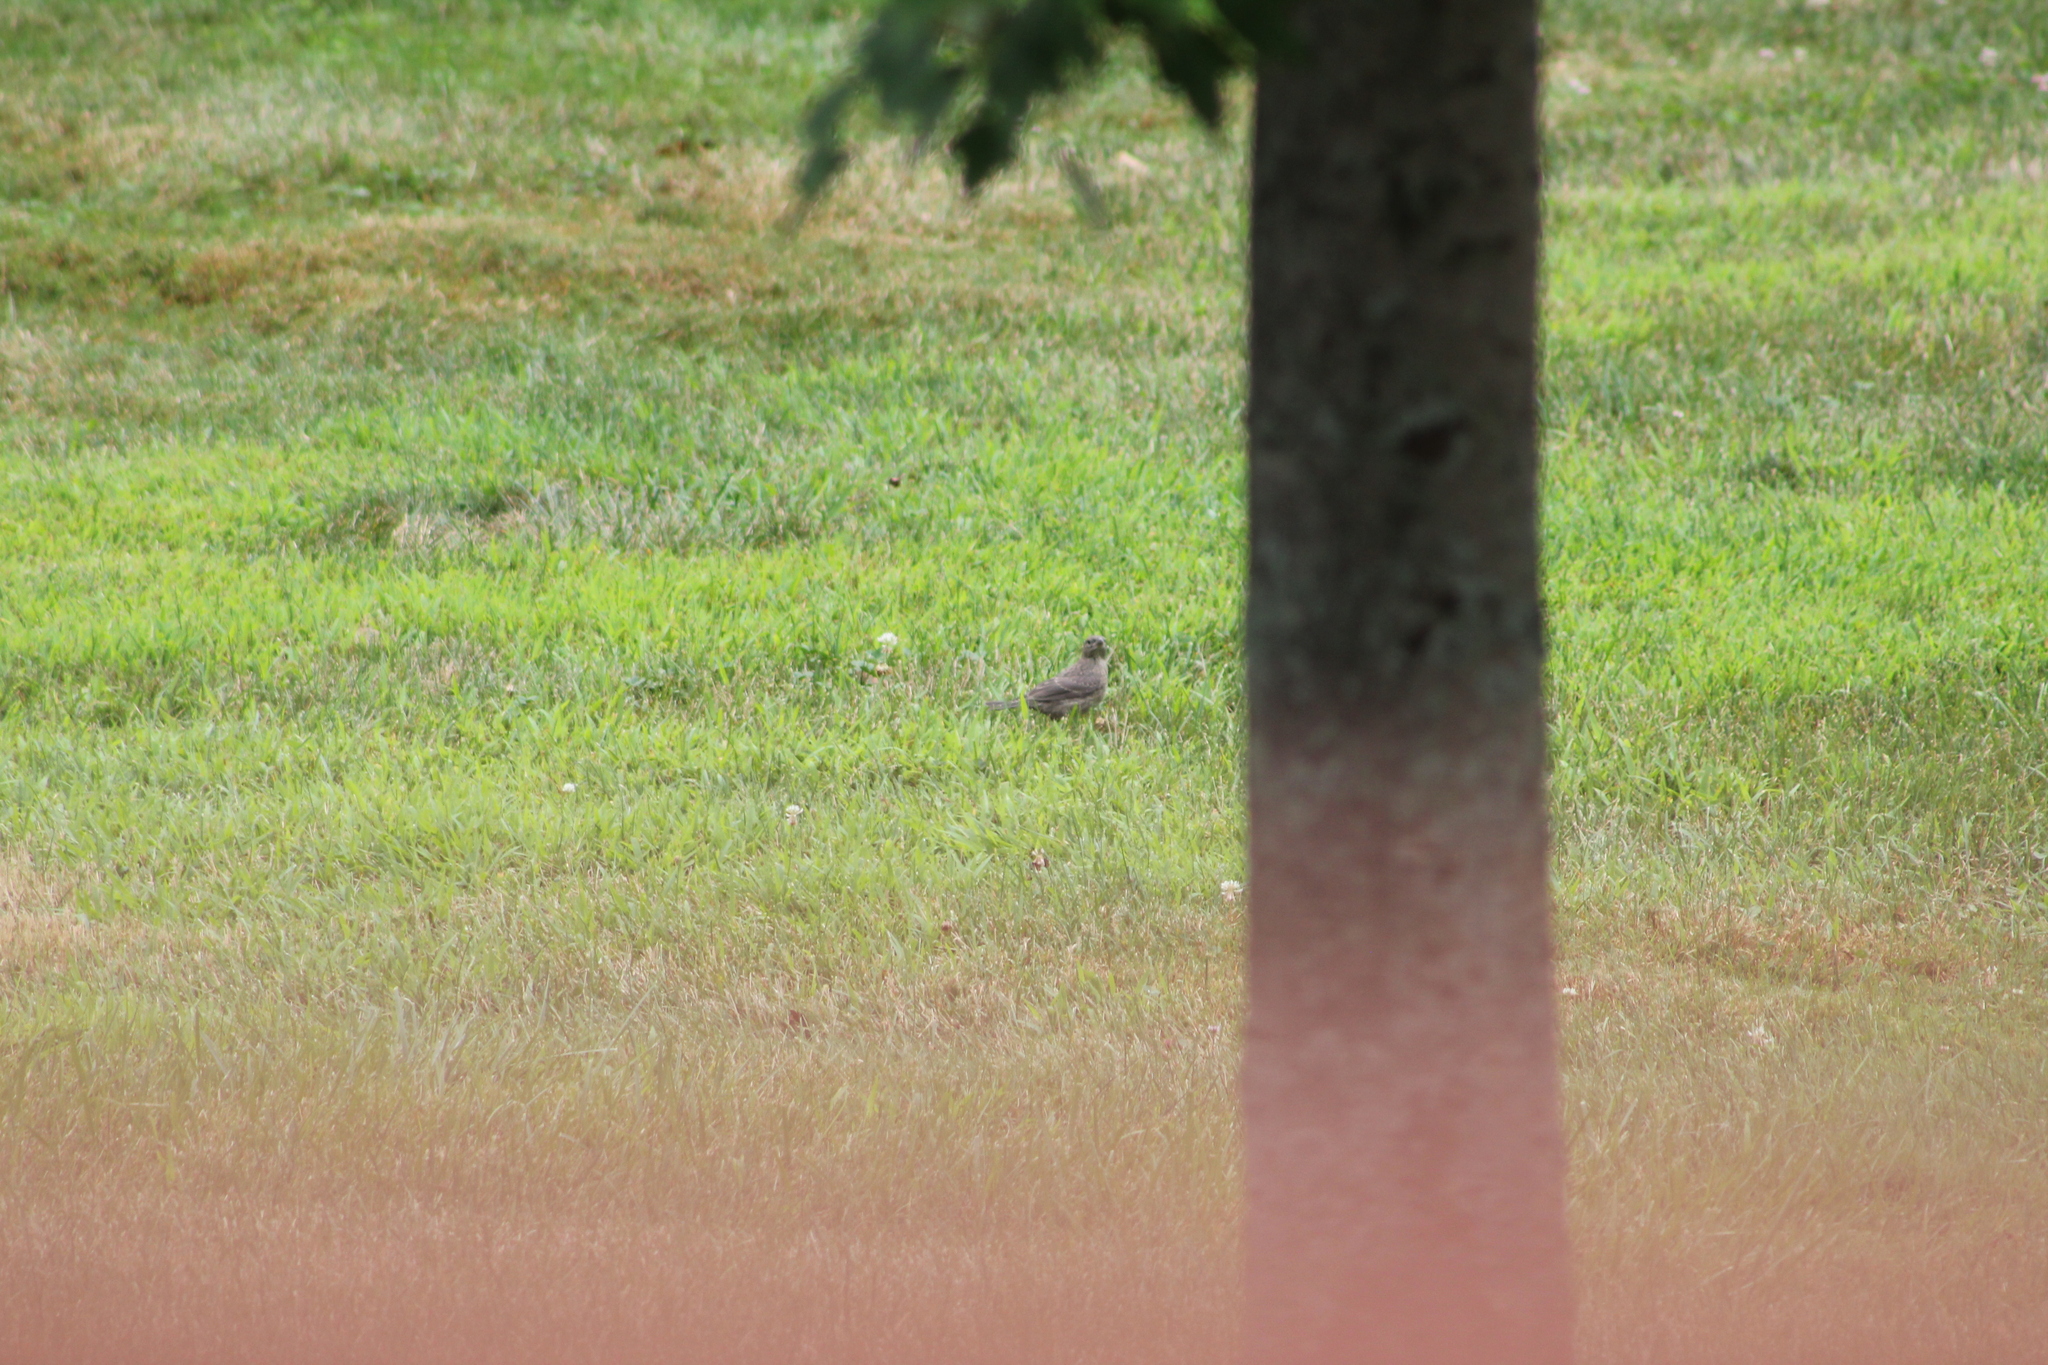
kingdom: Animalia
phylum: Chordata
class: Aves
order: Passeriformes
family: Icteridae
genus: Molothrus
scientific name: Molothrus ater
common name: Brown-headed cowbird
